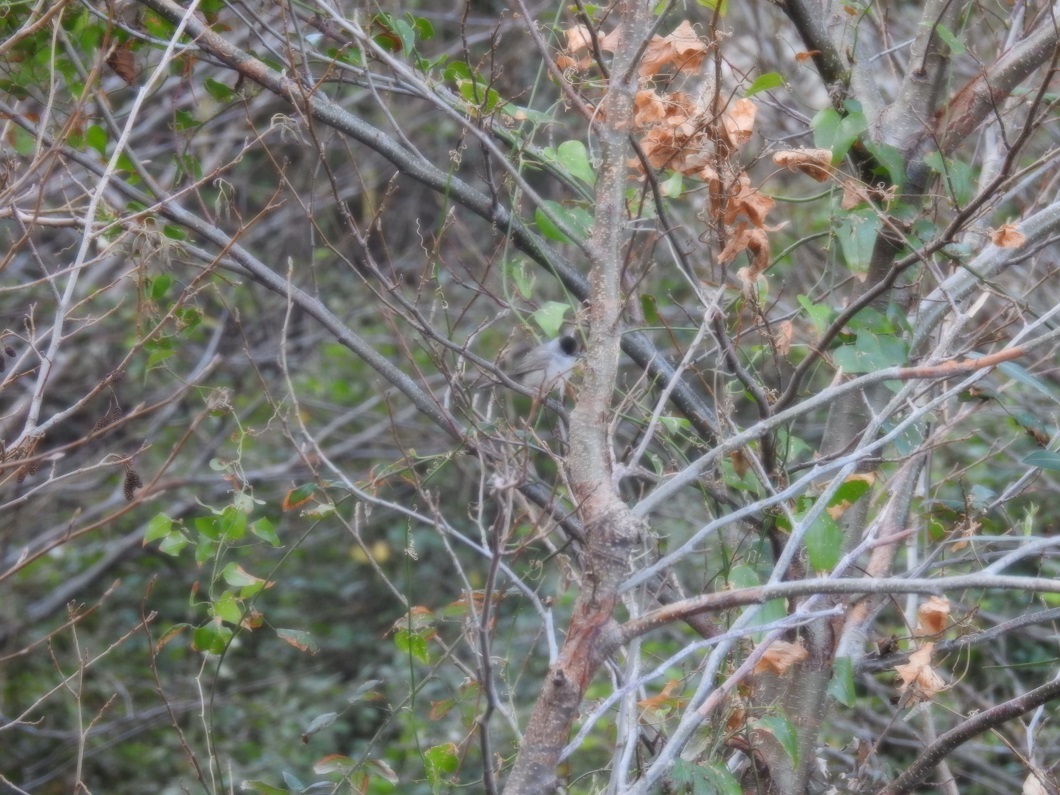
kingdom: Animalia
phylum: Chordata
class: Aves
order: Passeriformes
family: Sylviidae
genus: Sylvia
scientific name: Sylvia atricapilla
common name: Eurasian blackcap
